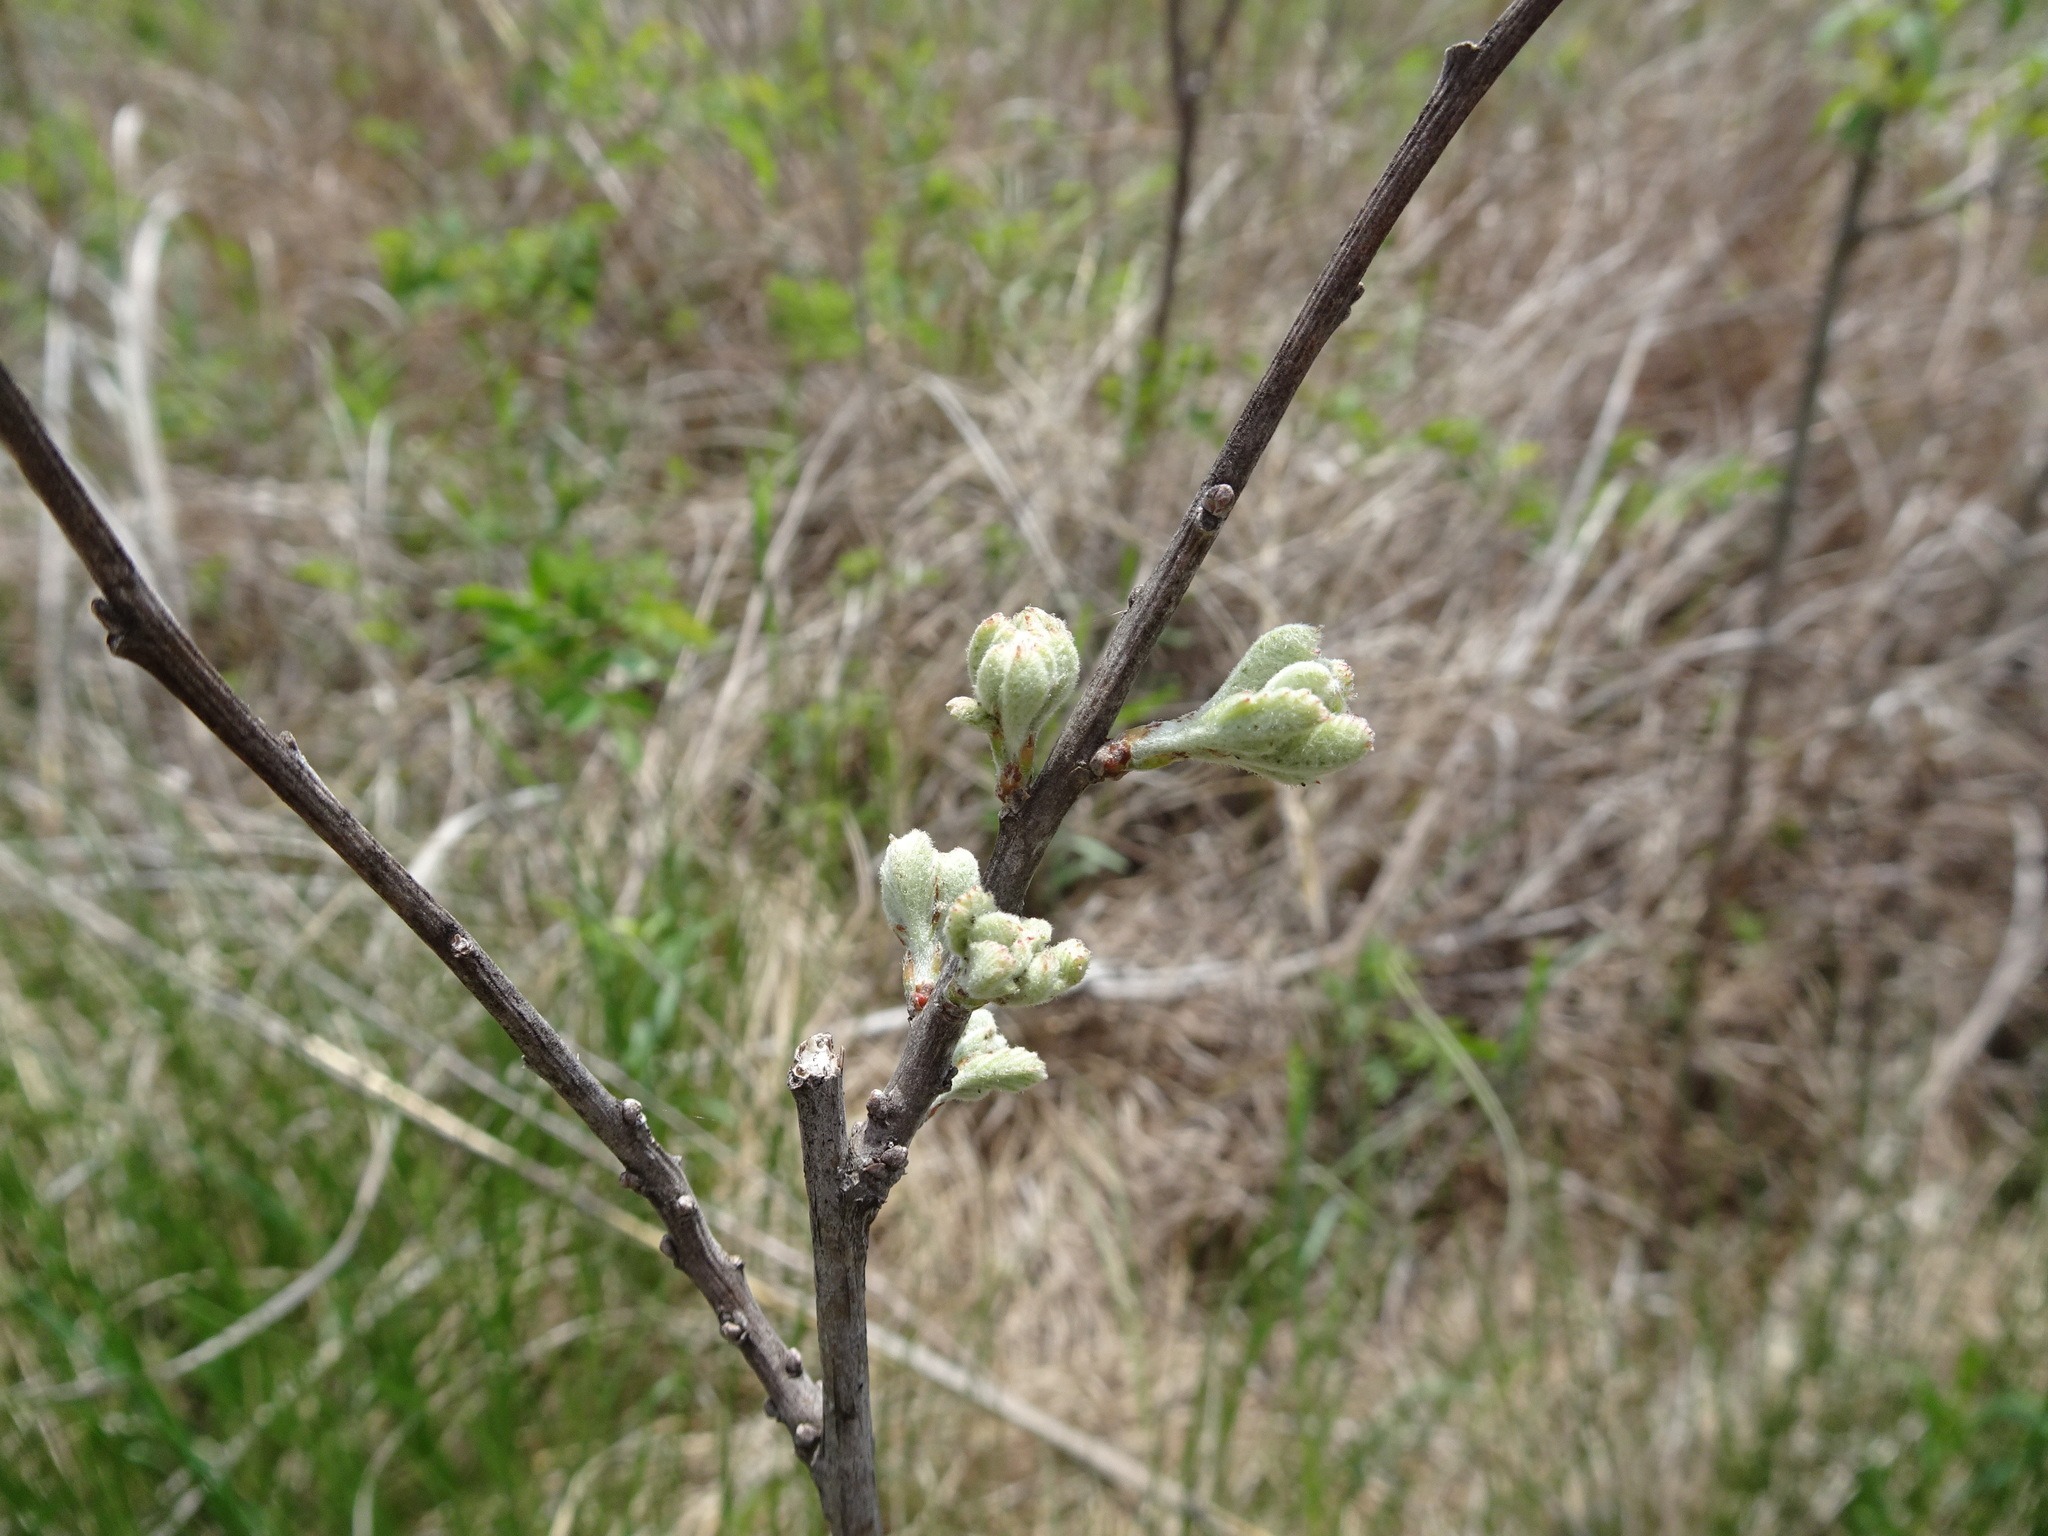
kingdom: Plantae
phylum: Tracheophyta
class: Magnoliopsida
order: Fabales
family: Fabaceae
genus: Amorpha
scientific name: Amorpha canescens
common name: Leadplant
